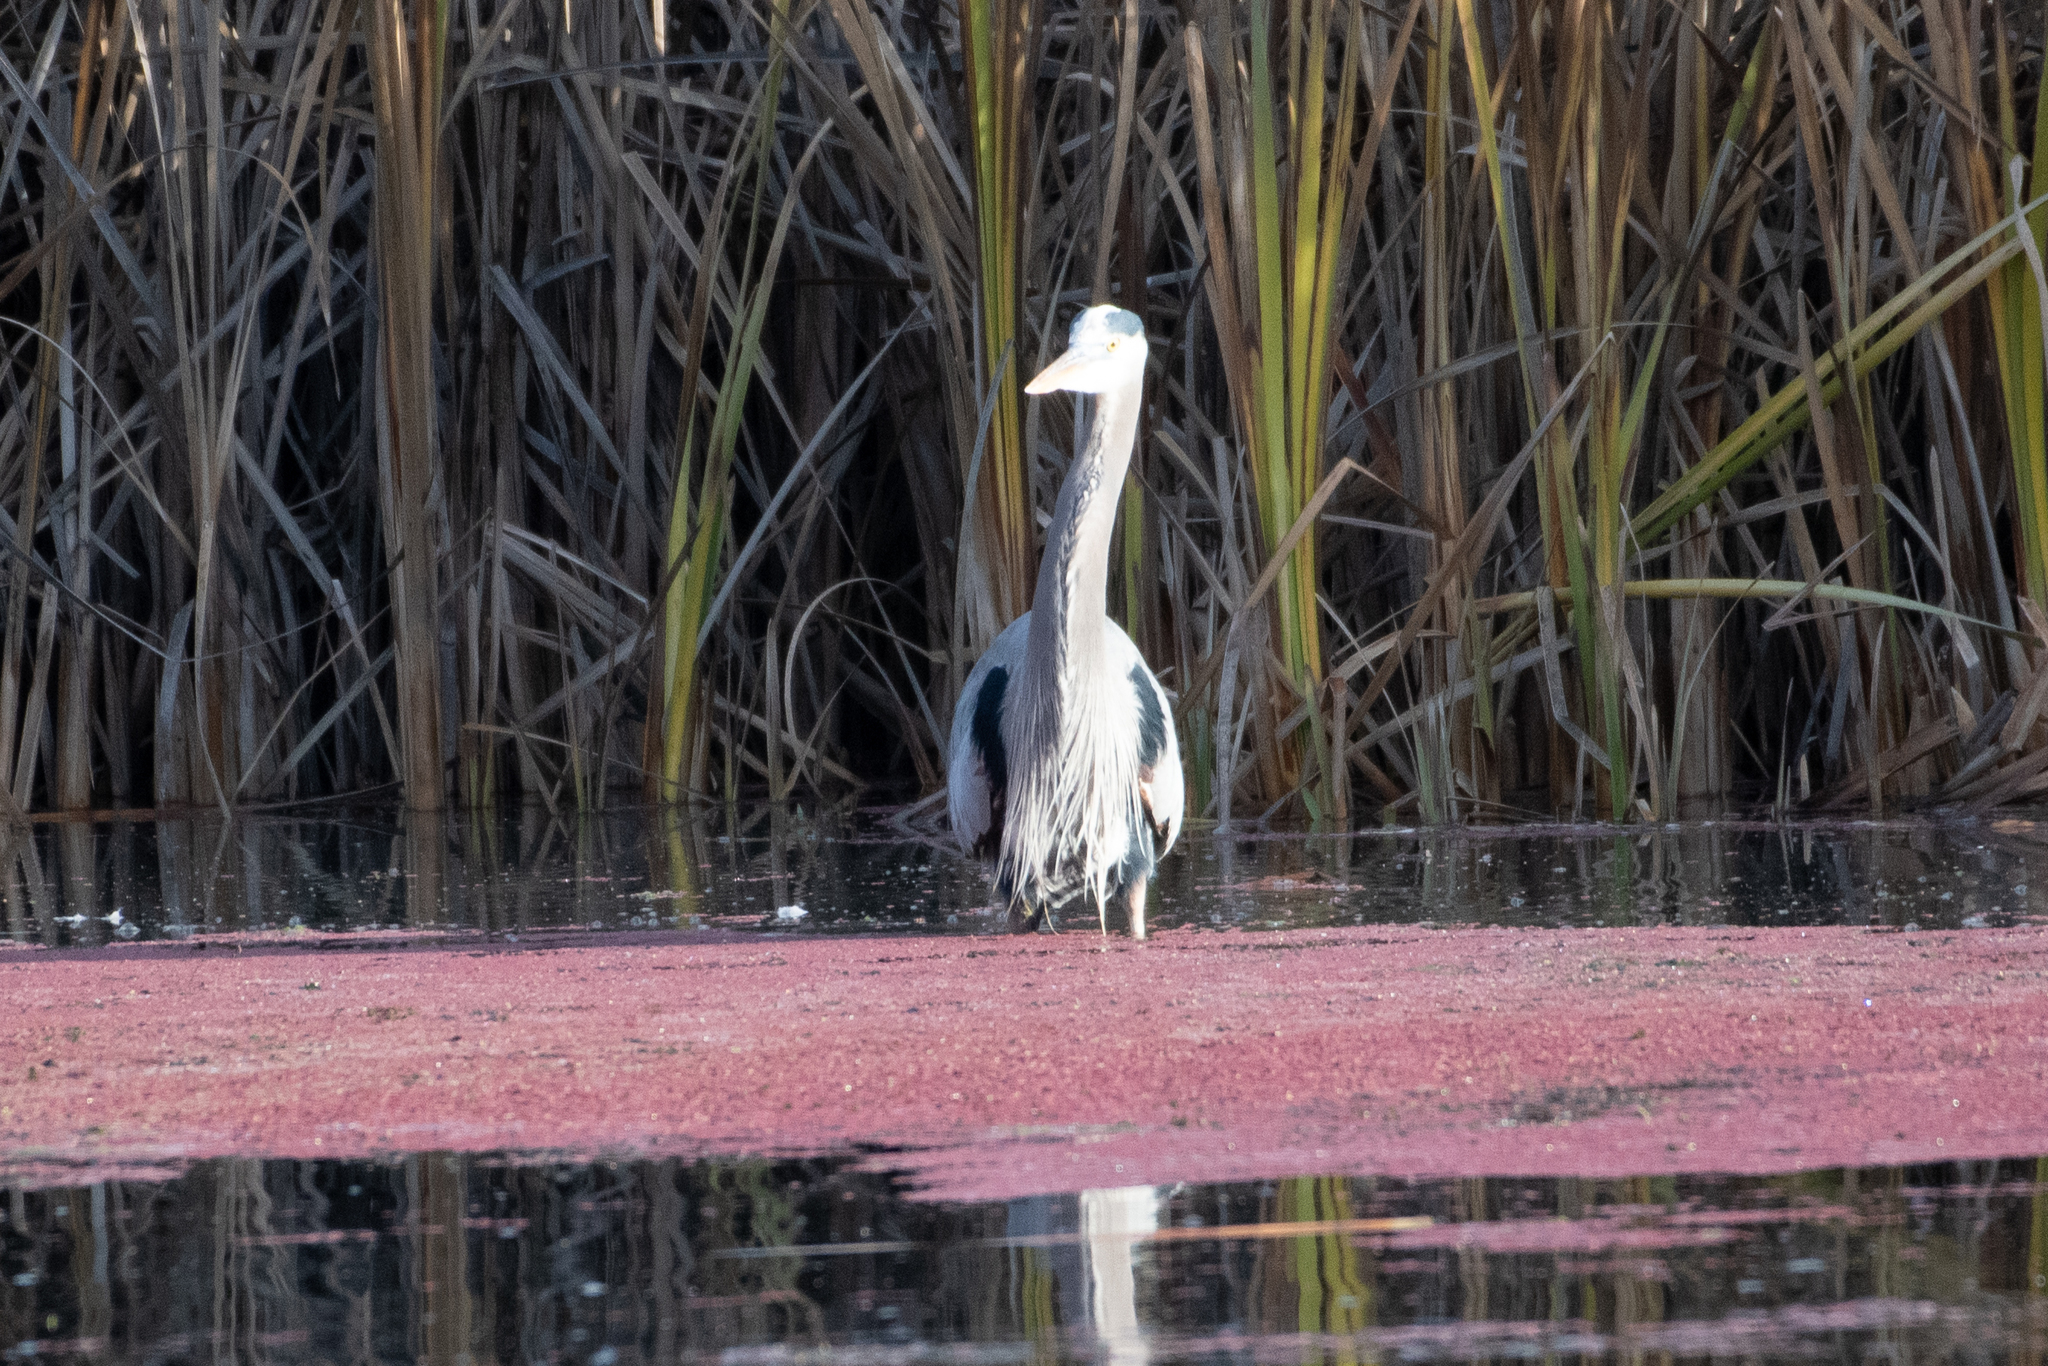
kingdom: Animalia
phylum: Chordata
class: Aves
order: Pelecaniformes
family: Ardeidae
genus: Ardea
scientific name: Ardea herodias
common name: Great blue heron
